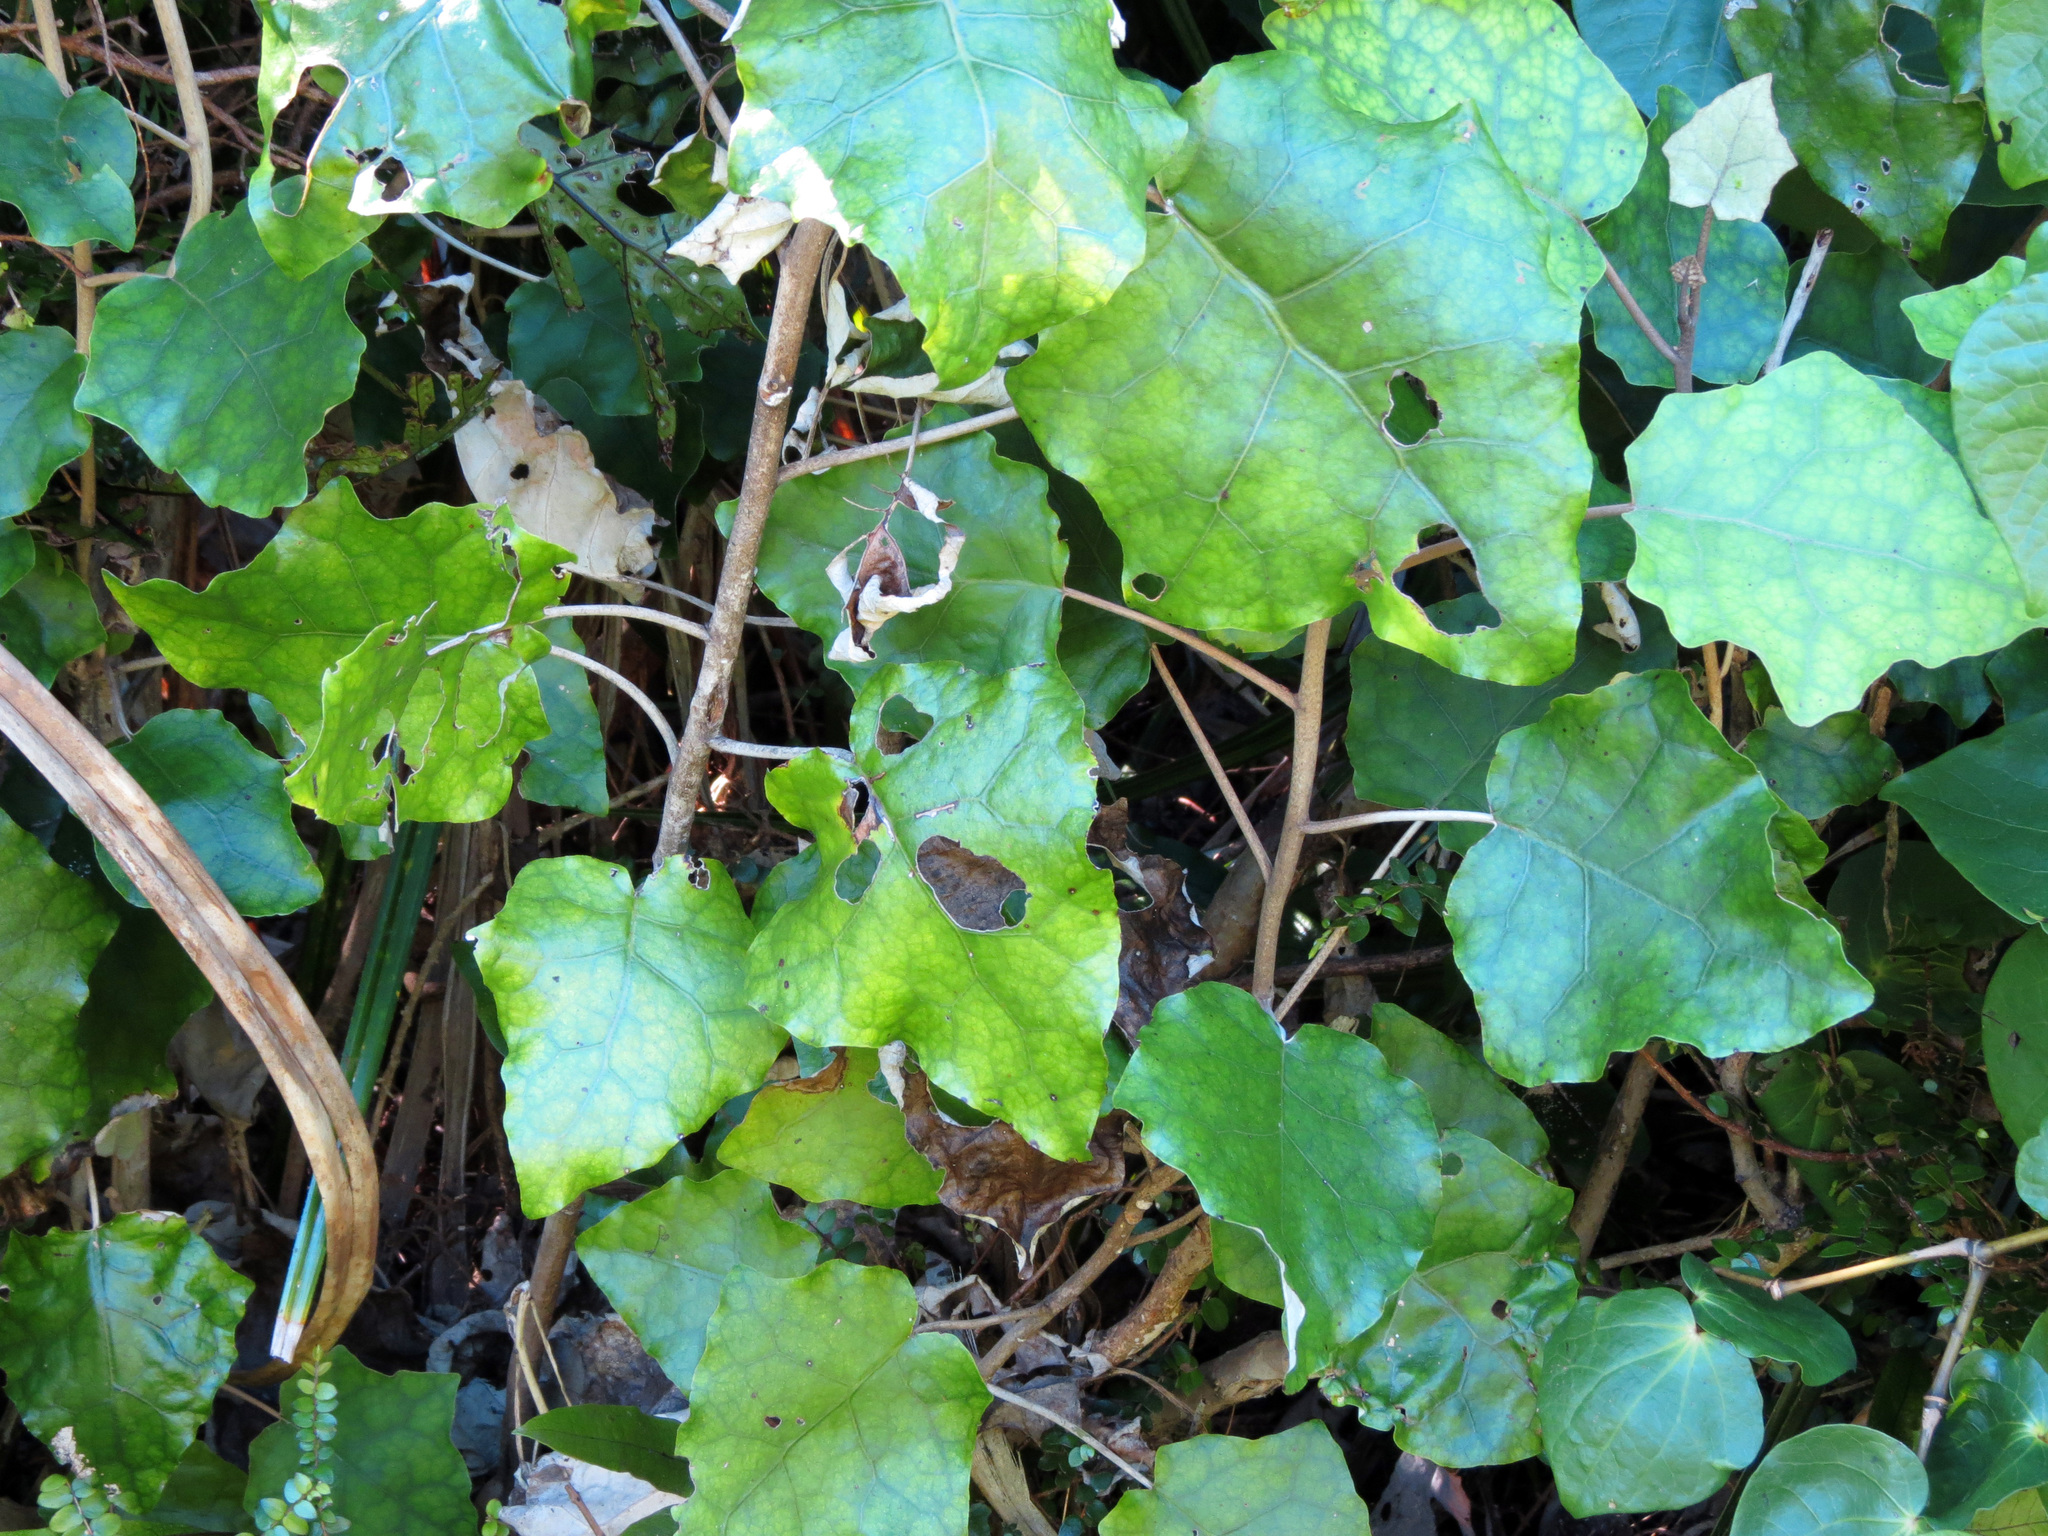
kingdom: Plantae
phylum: Tracheophyta
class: Magnoliopsida
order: Asterales
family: Asteraceae
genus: Brachyglottis
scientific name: Brachyglottis repanda
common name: Hedge ragwort
